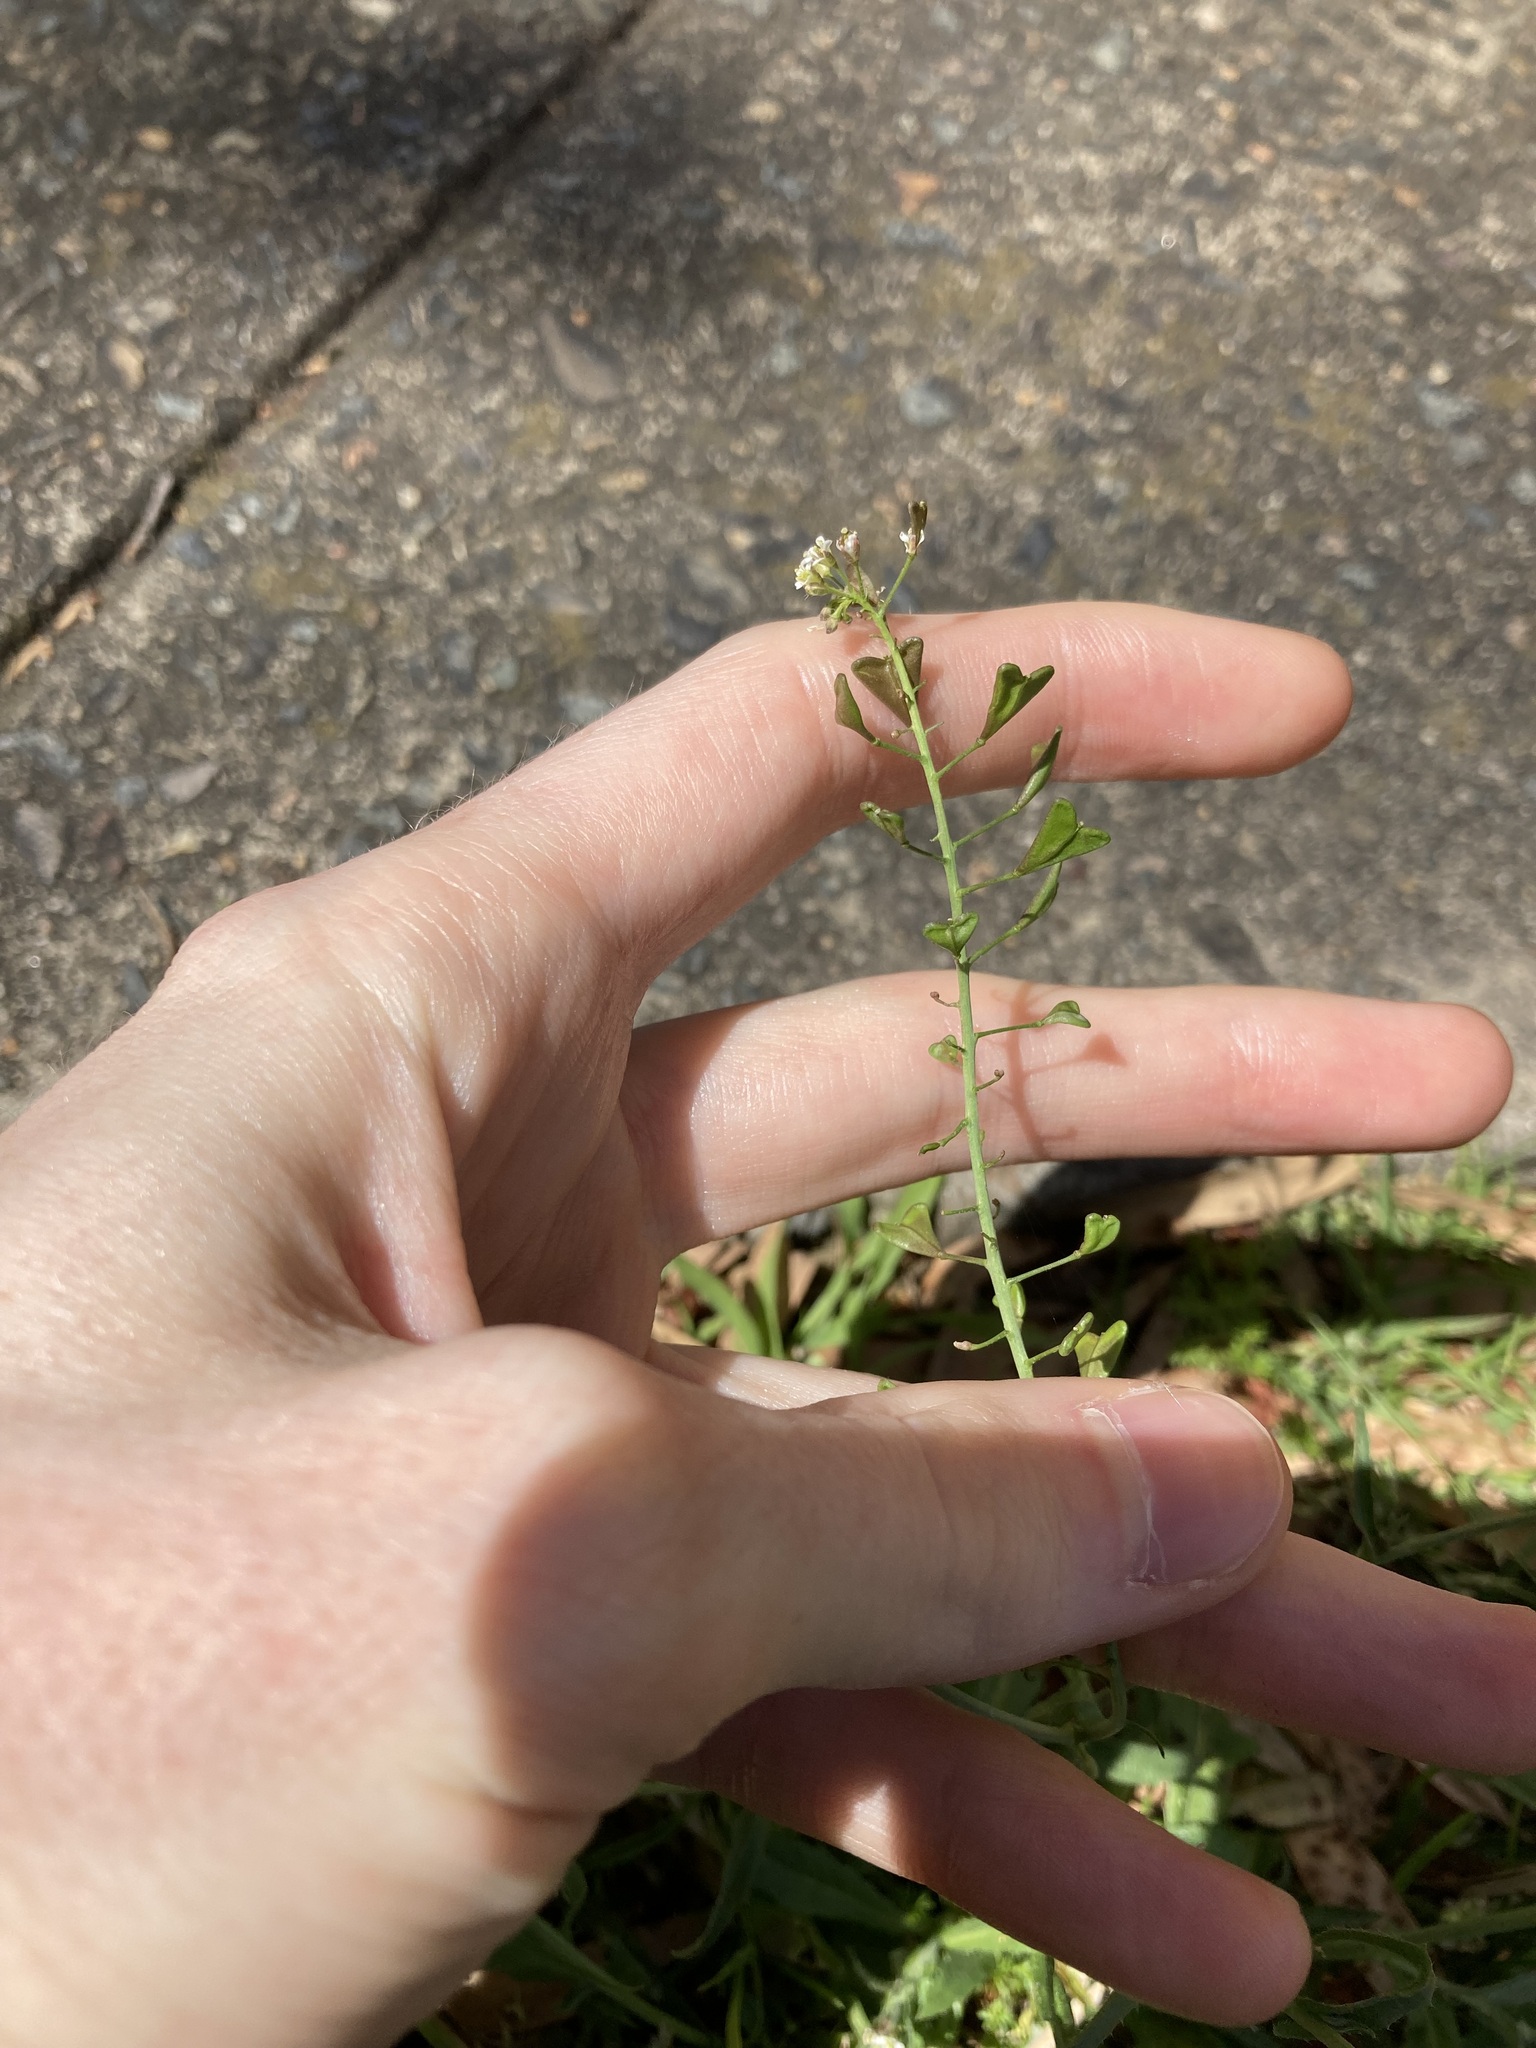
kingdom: Plantae
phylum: Tracheophyta
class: Magnoliopsida
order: Brassicales
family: Brassicaceae
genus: Capsella
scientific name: Capsella bursa-pastoris
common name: Shepherd's purse
